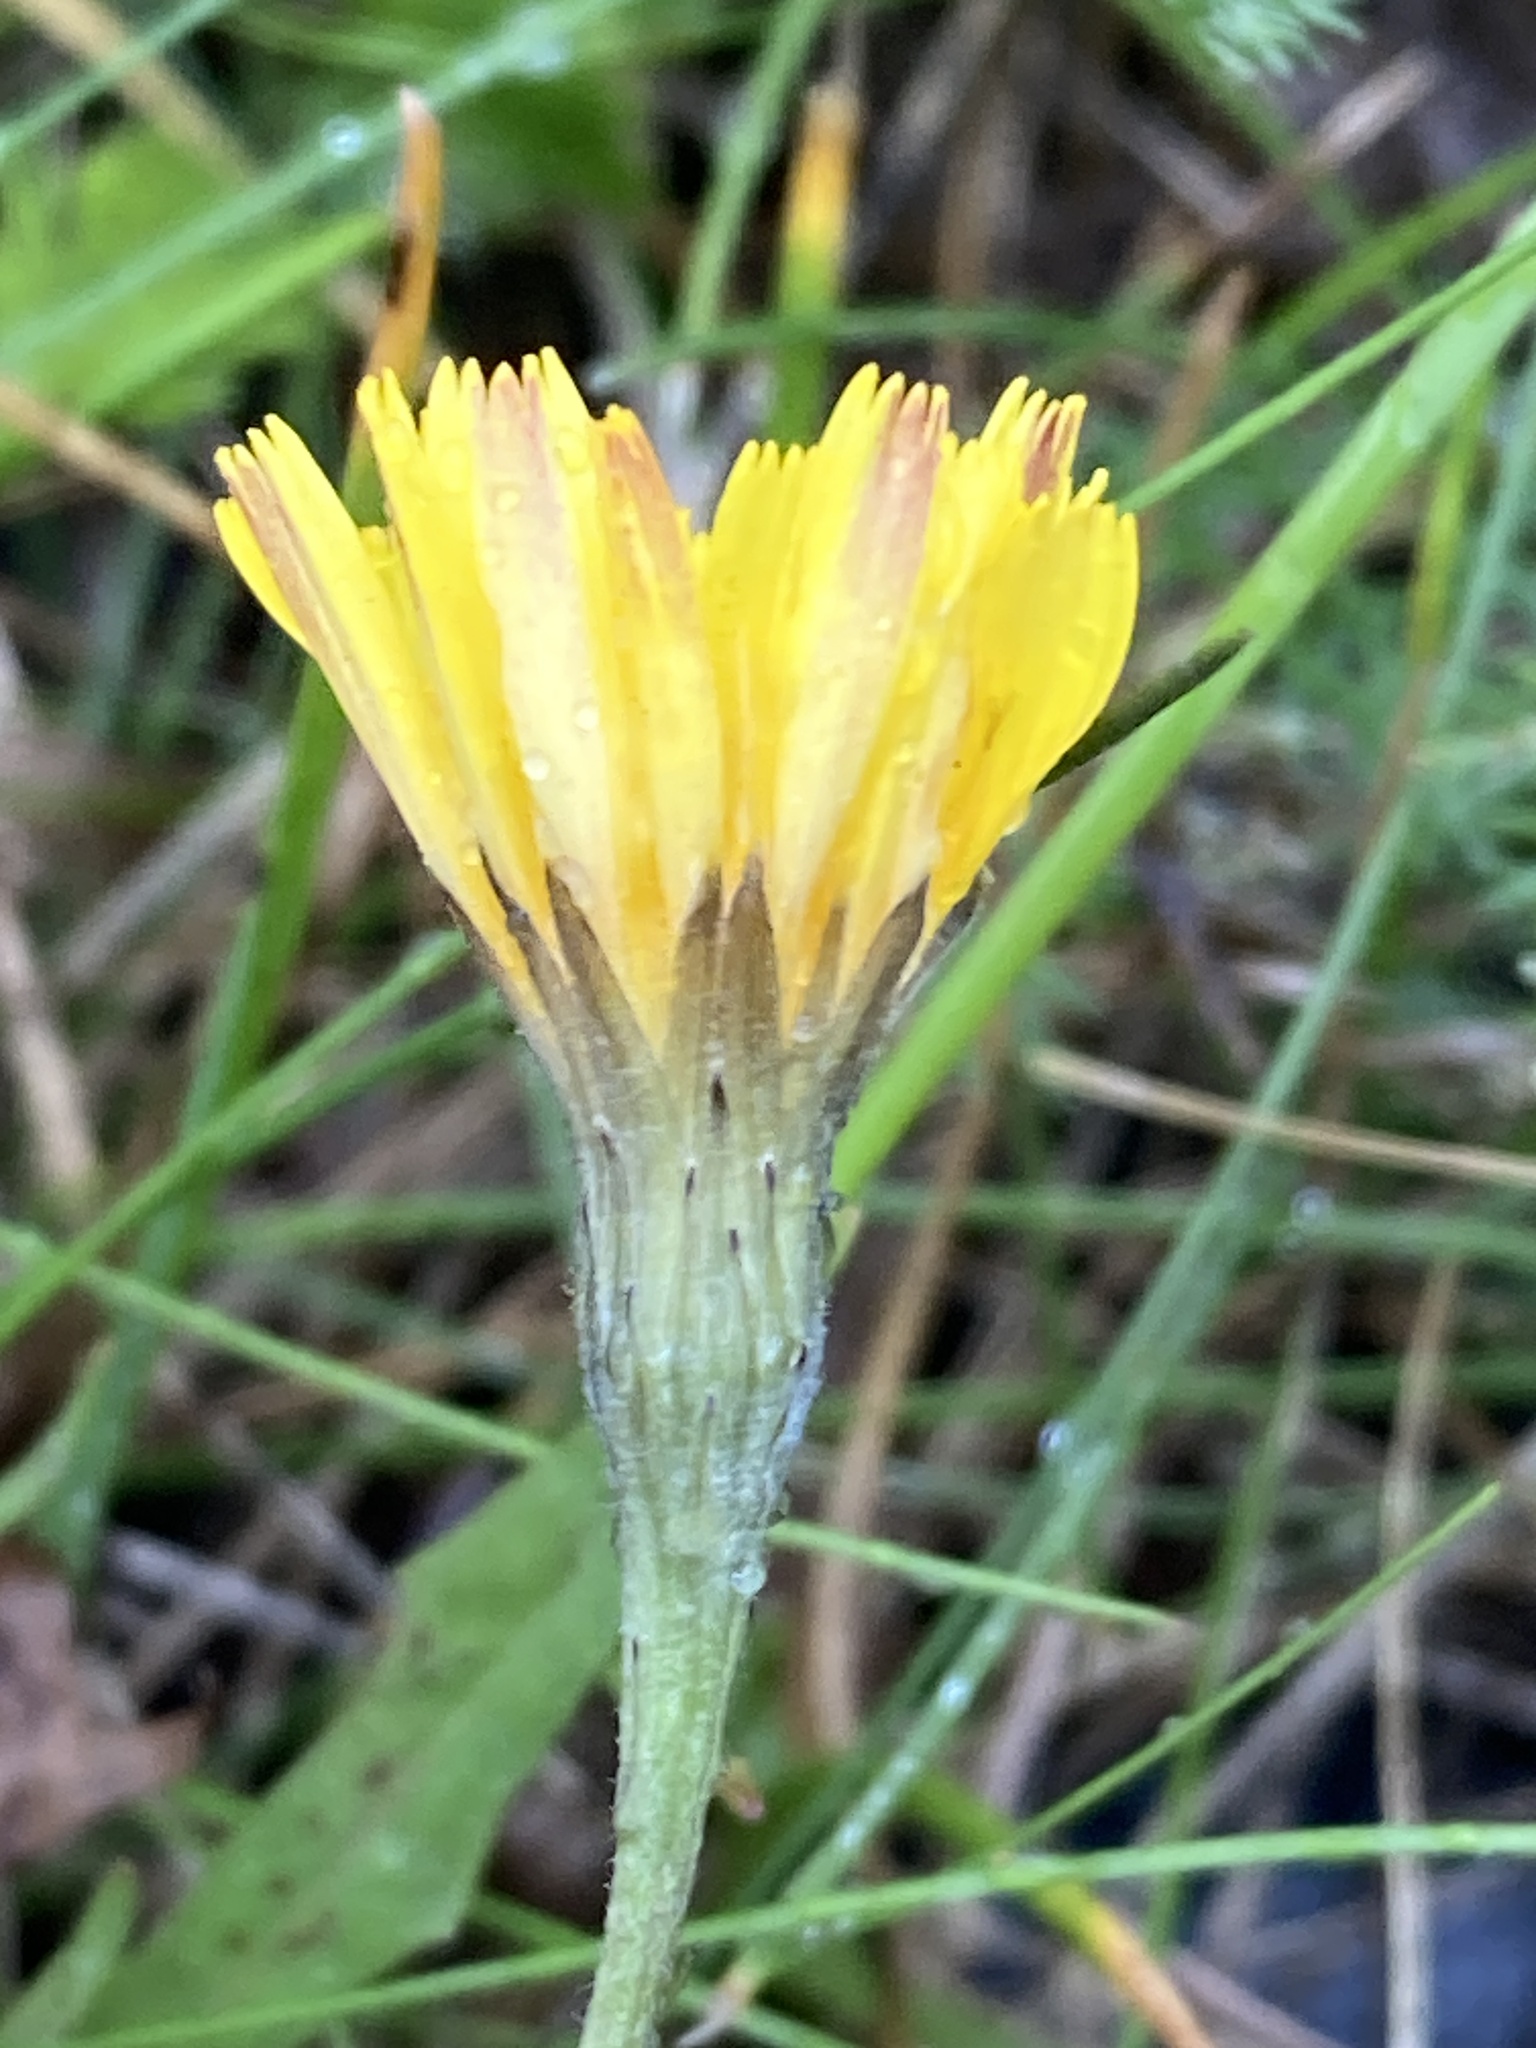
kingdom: Plantae
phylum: Tracheophyta
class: Magnoliopsida
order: Asterales
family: Asteraceae
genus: Scorzoneroides
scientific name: Scorzoneroides autumnalis
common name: Autumn hawkbit
